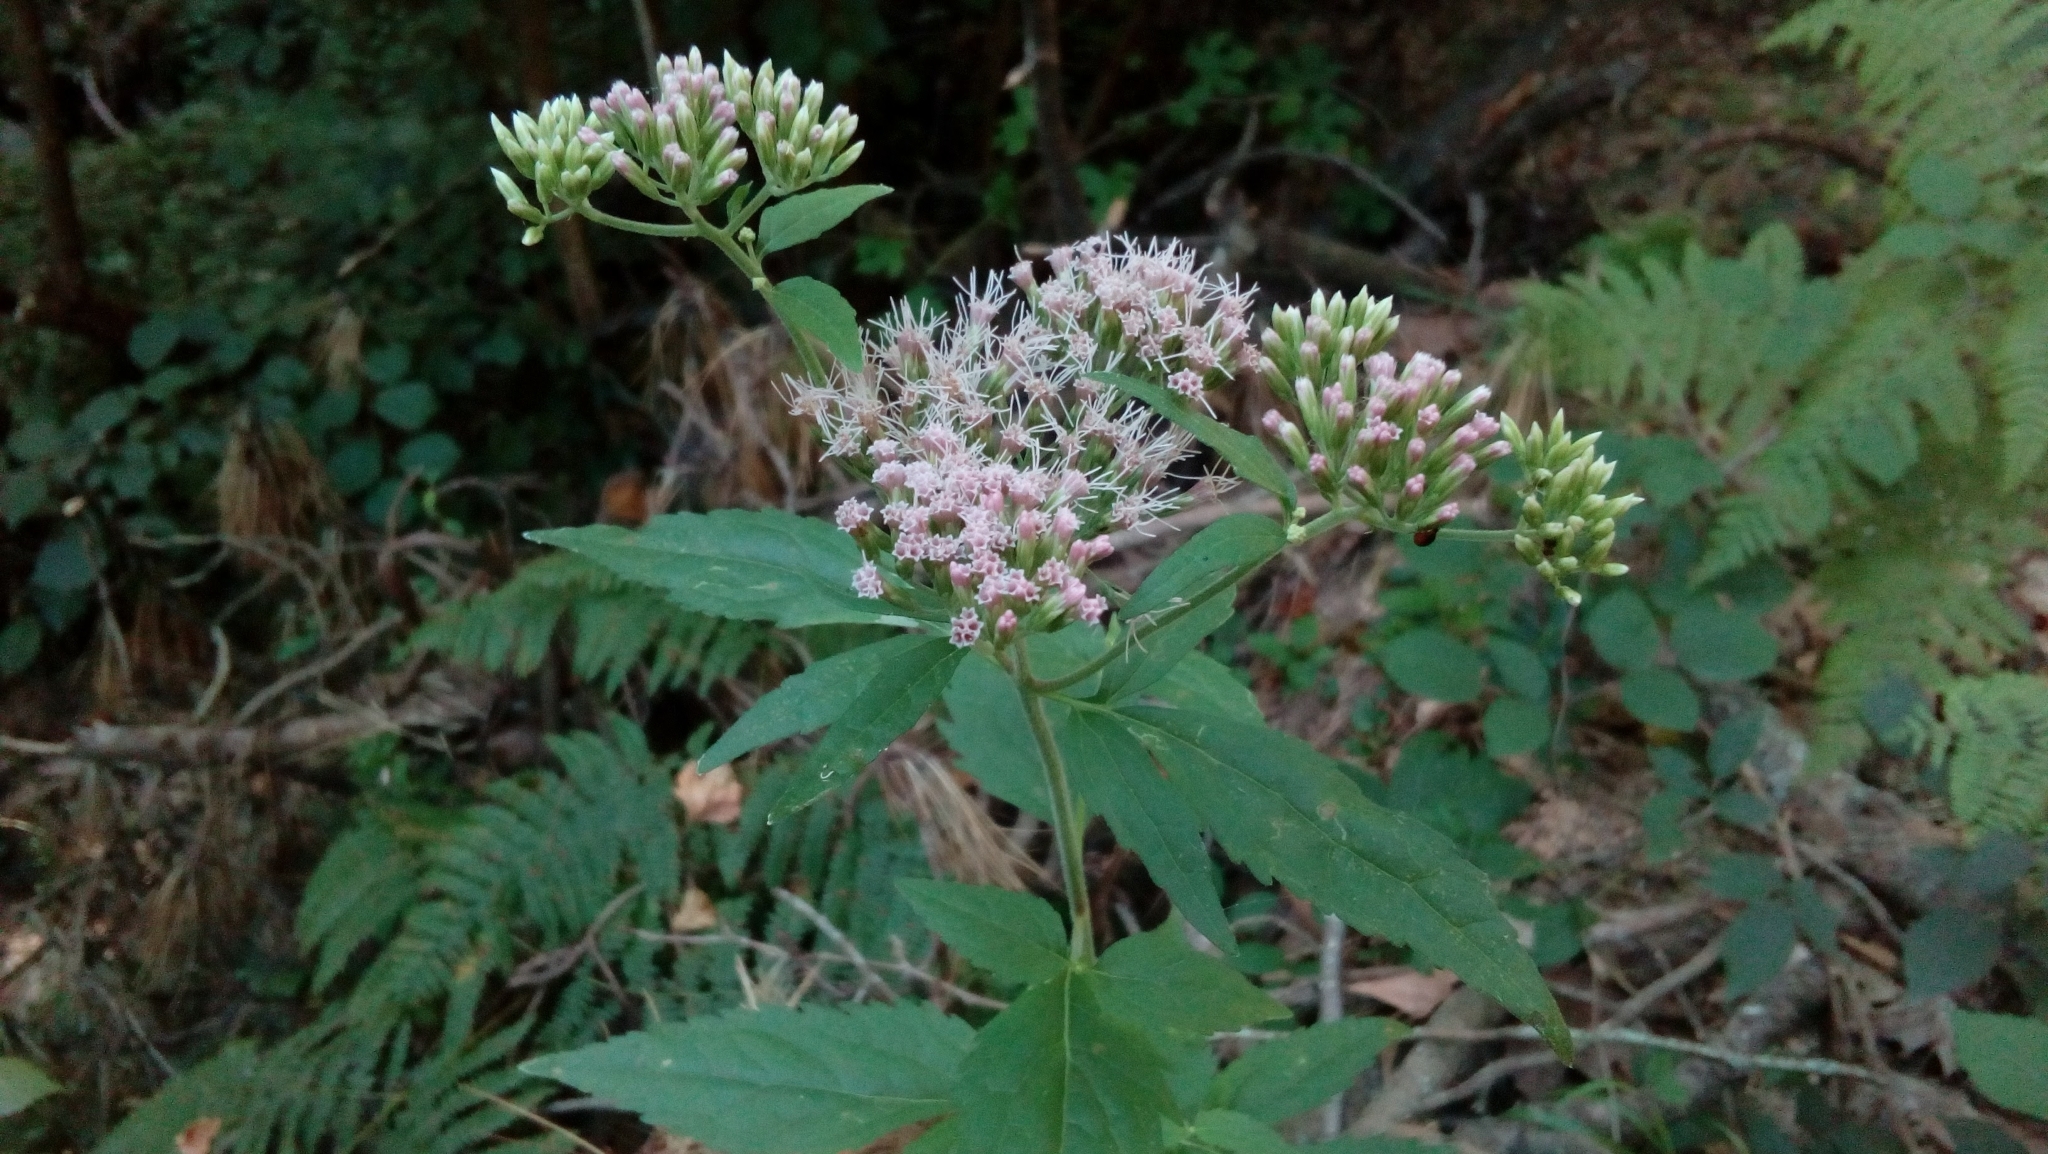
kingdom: Plantae
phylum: Tracheophyta
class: Magnoliopsida
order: Asterales
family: Asteraceae
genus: Eupatorium
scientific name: Eupatorium cannabinum
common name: Hemp-agrimony
